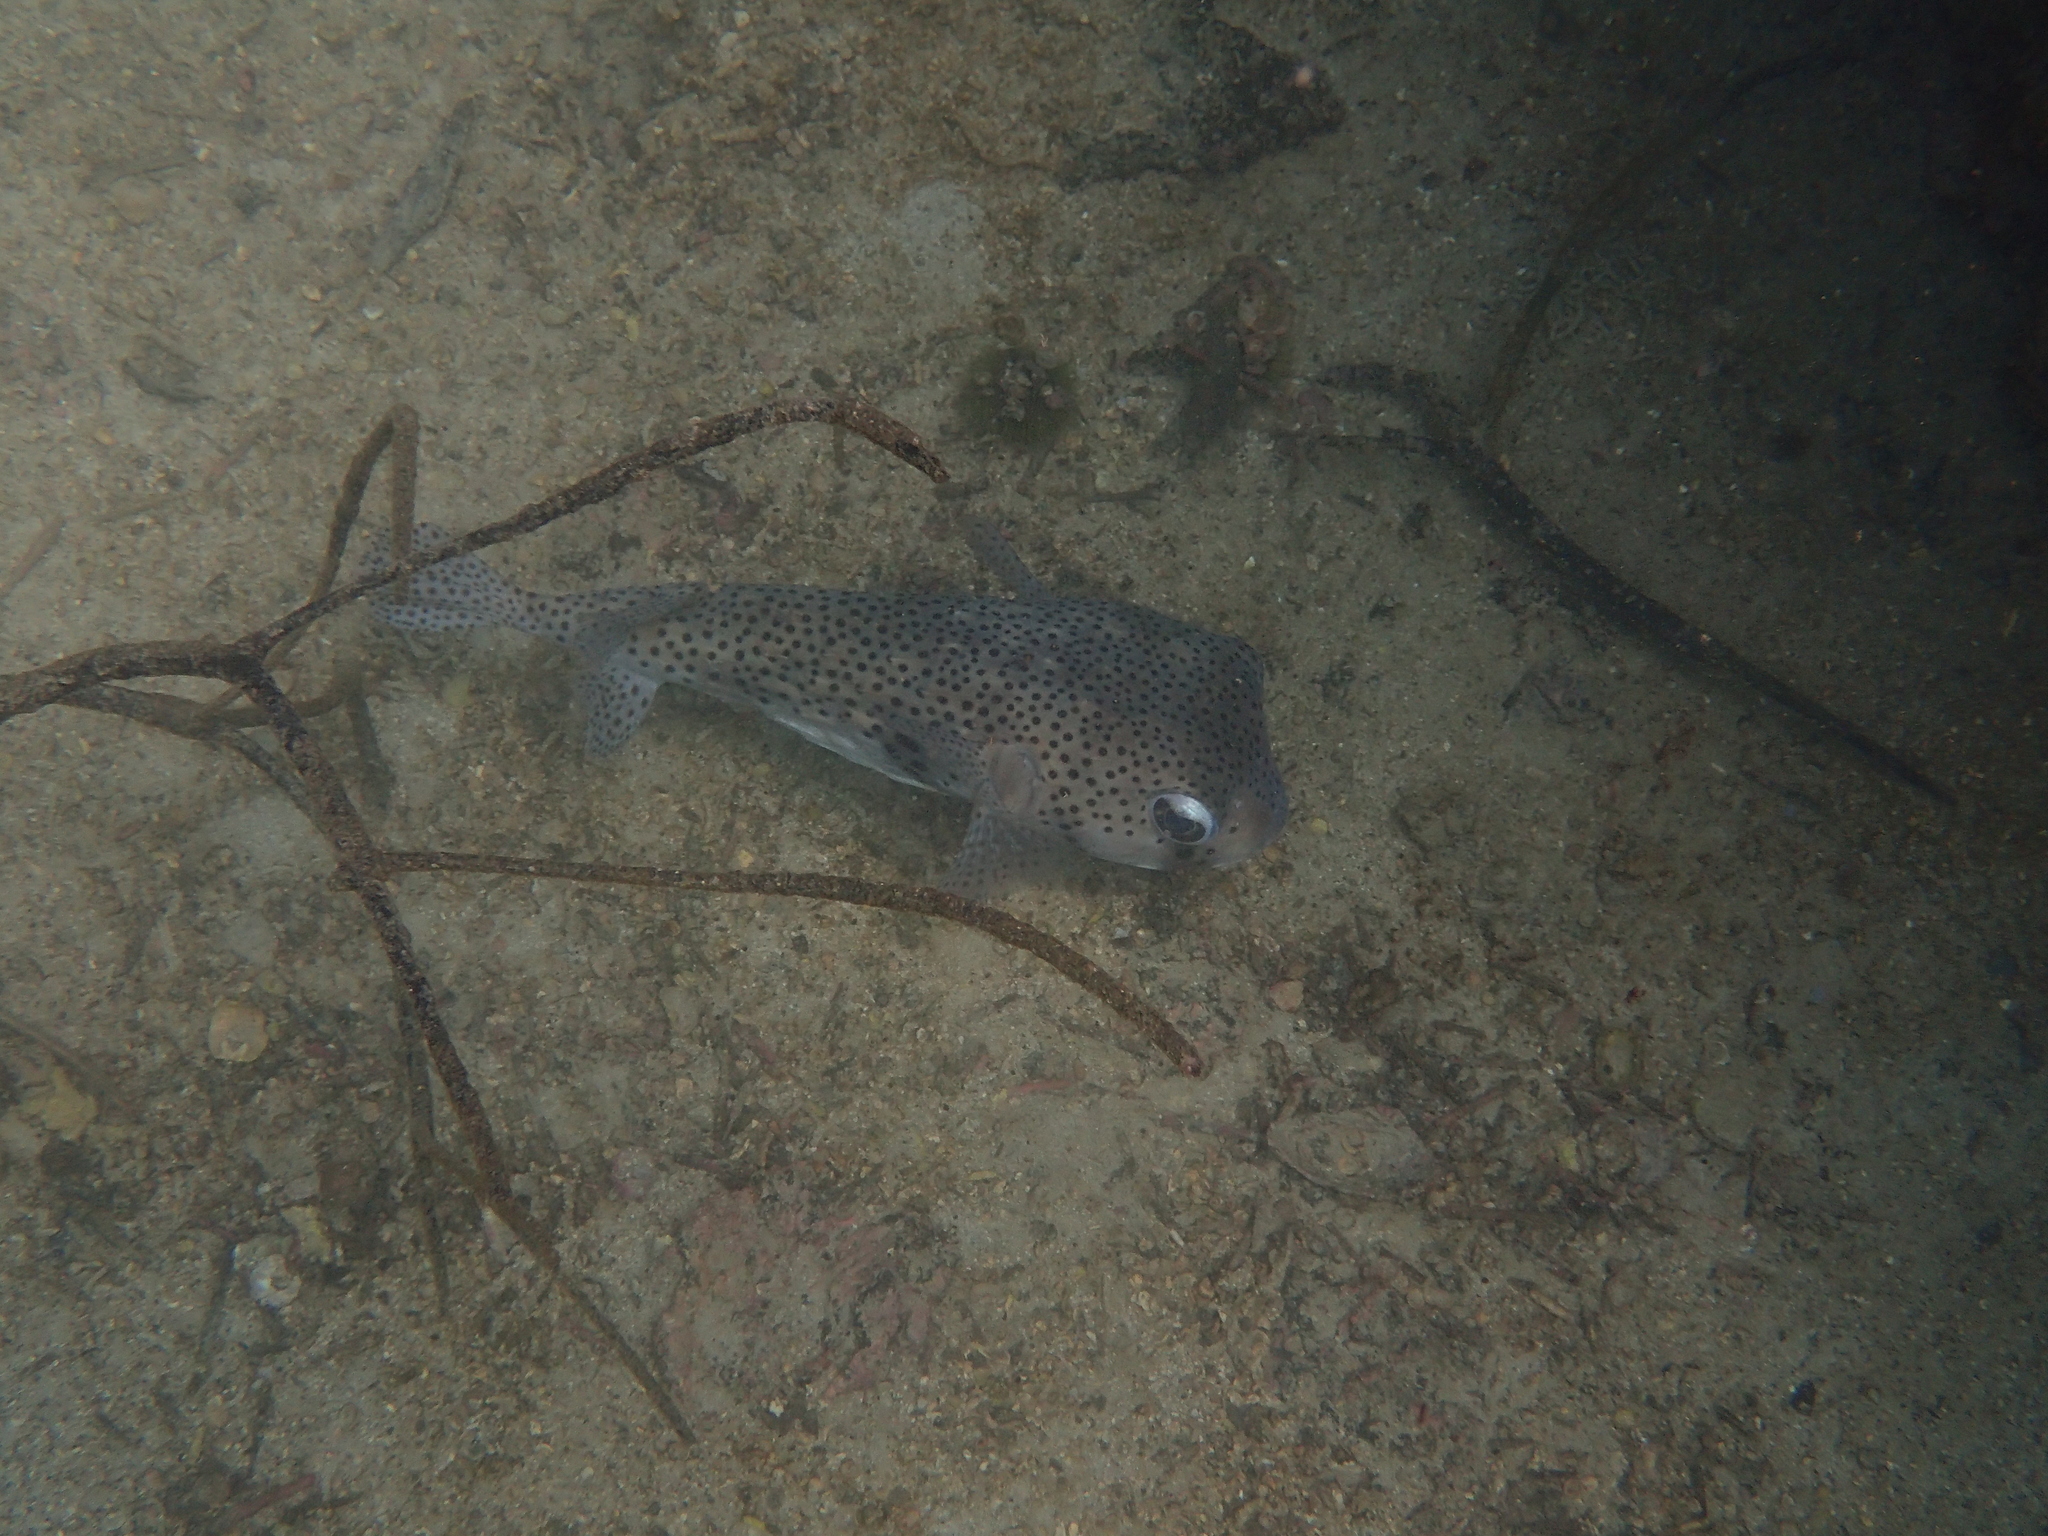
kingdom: Animalia
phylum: Chordata
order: Tetraodontiformes
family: Diodontidae
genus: Chilomycterus
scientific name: Chilomycterus reticulatus
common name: Spotfin burrfish
